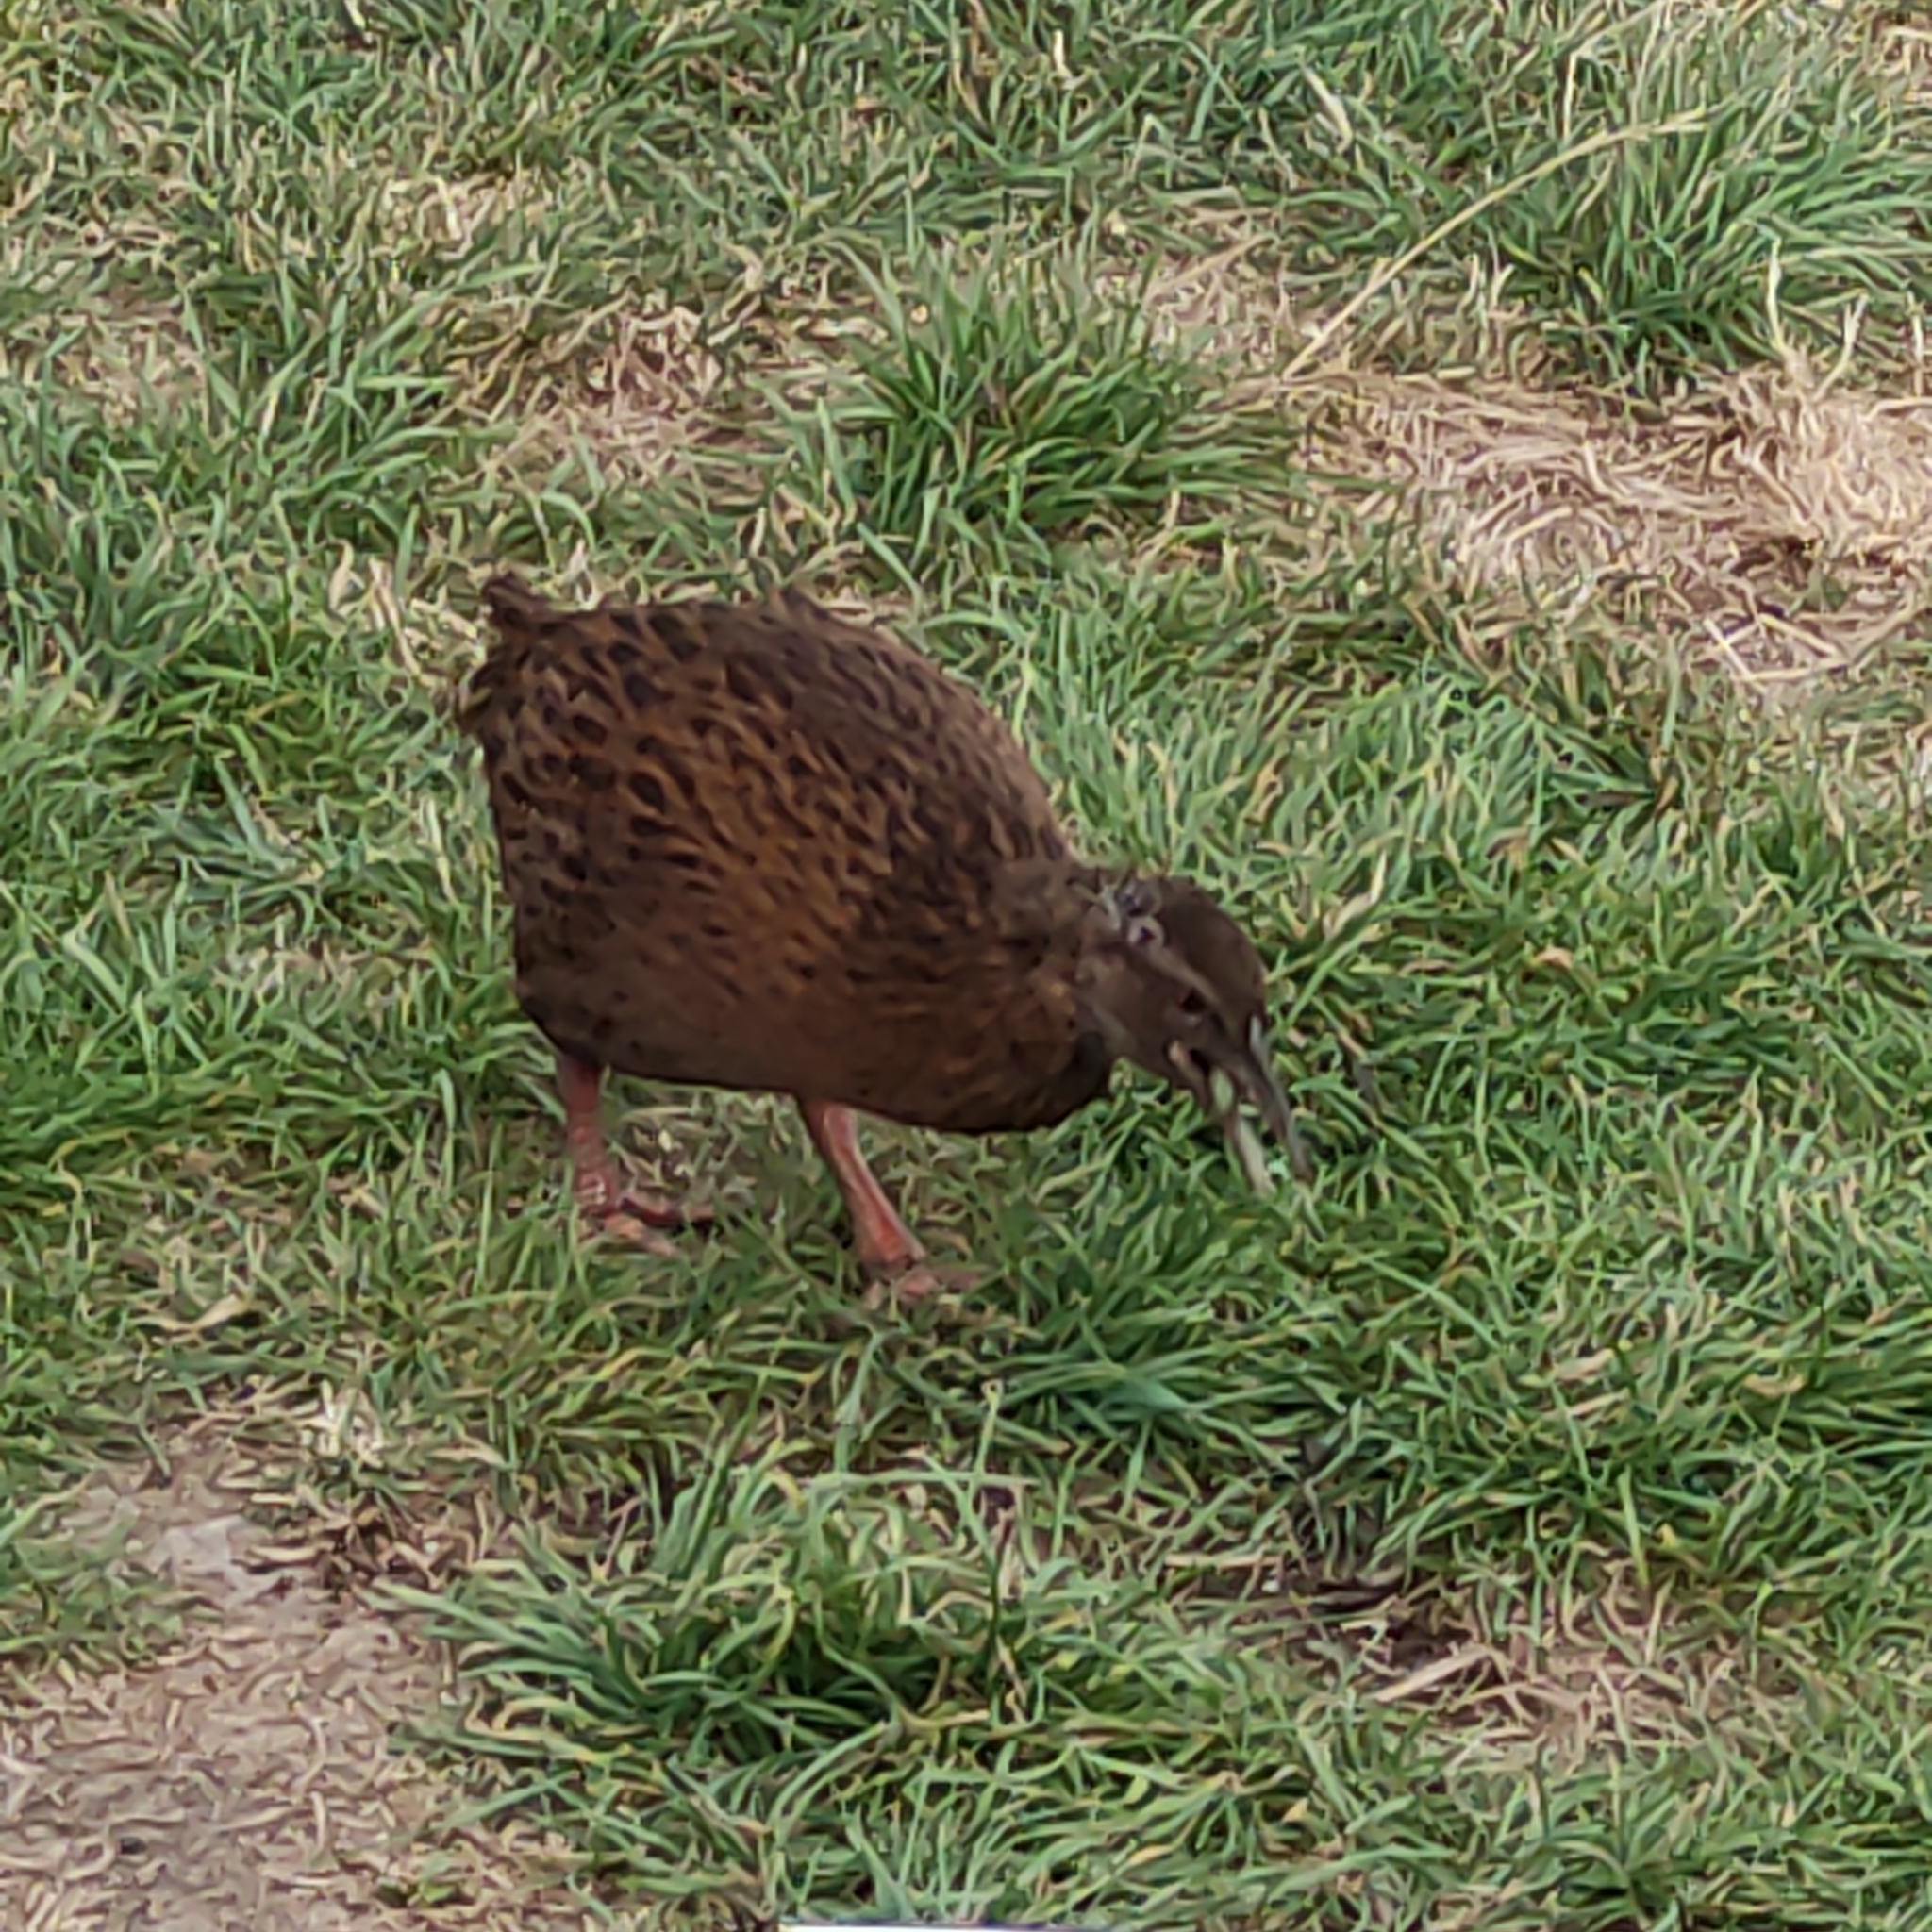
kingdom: Animalia
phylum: Chordata
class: Aves
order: Gruiformes
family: Rallidae
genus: Gallirallus
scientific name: Gallirallus australis
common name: Weka
